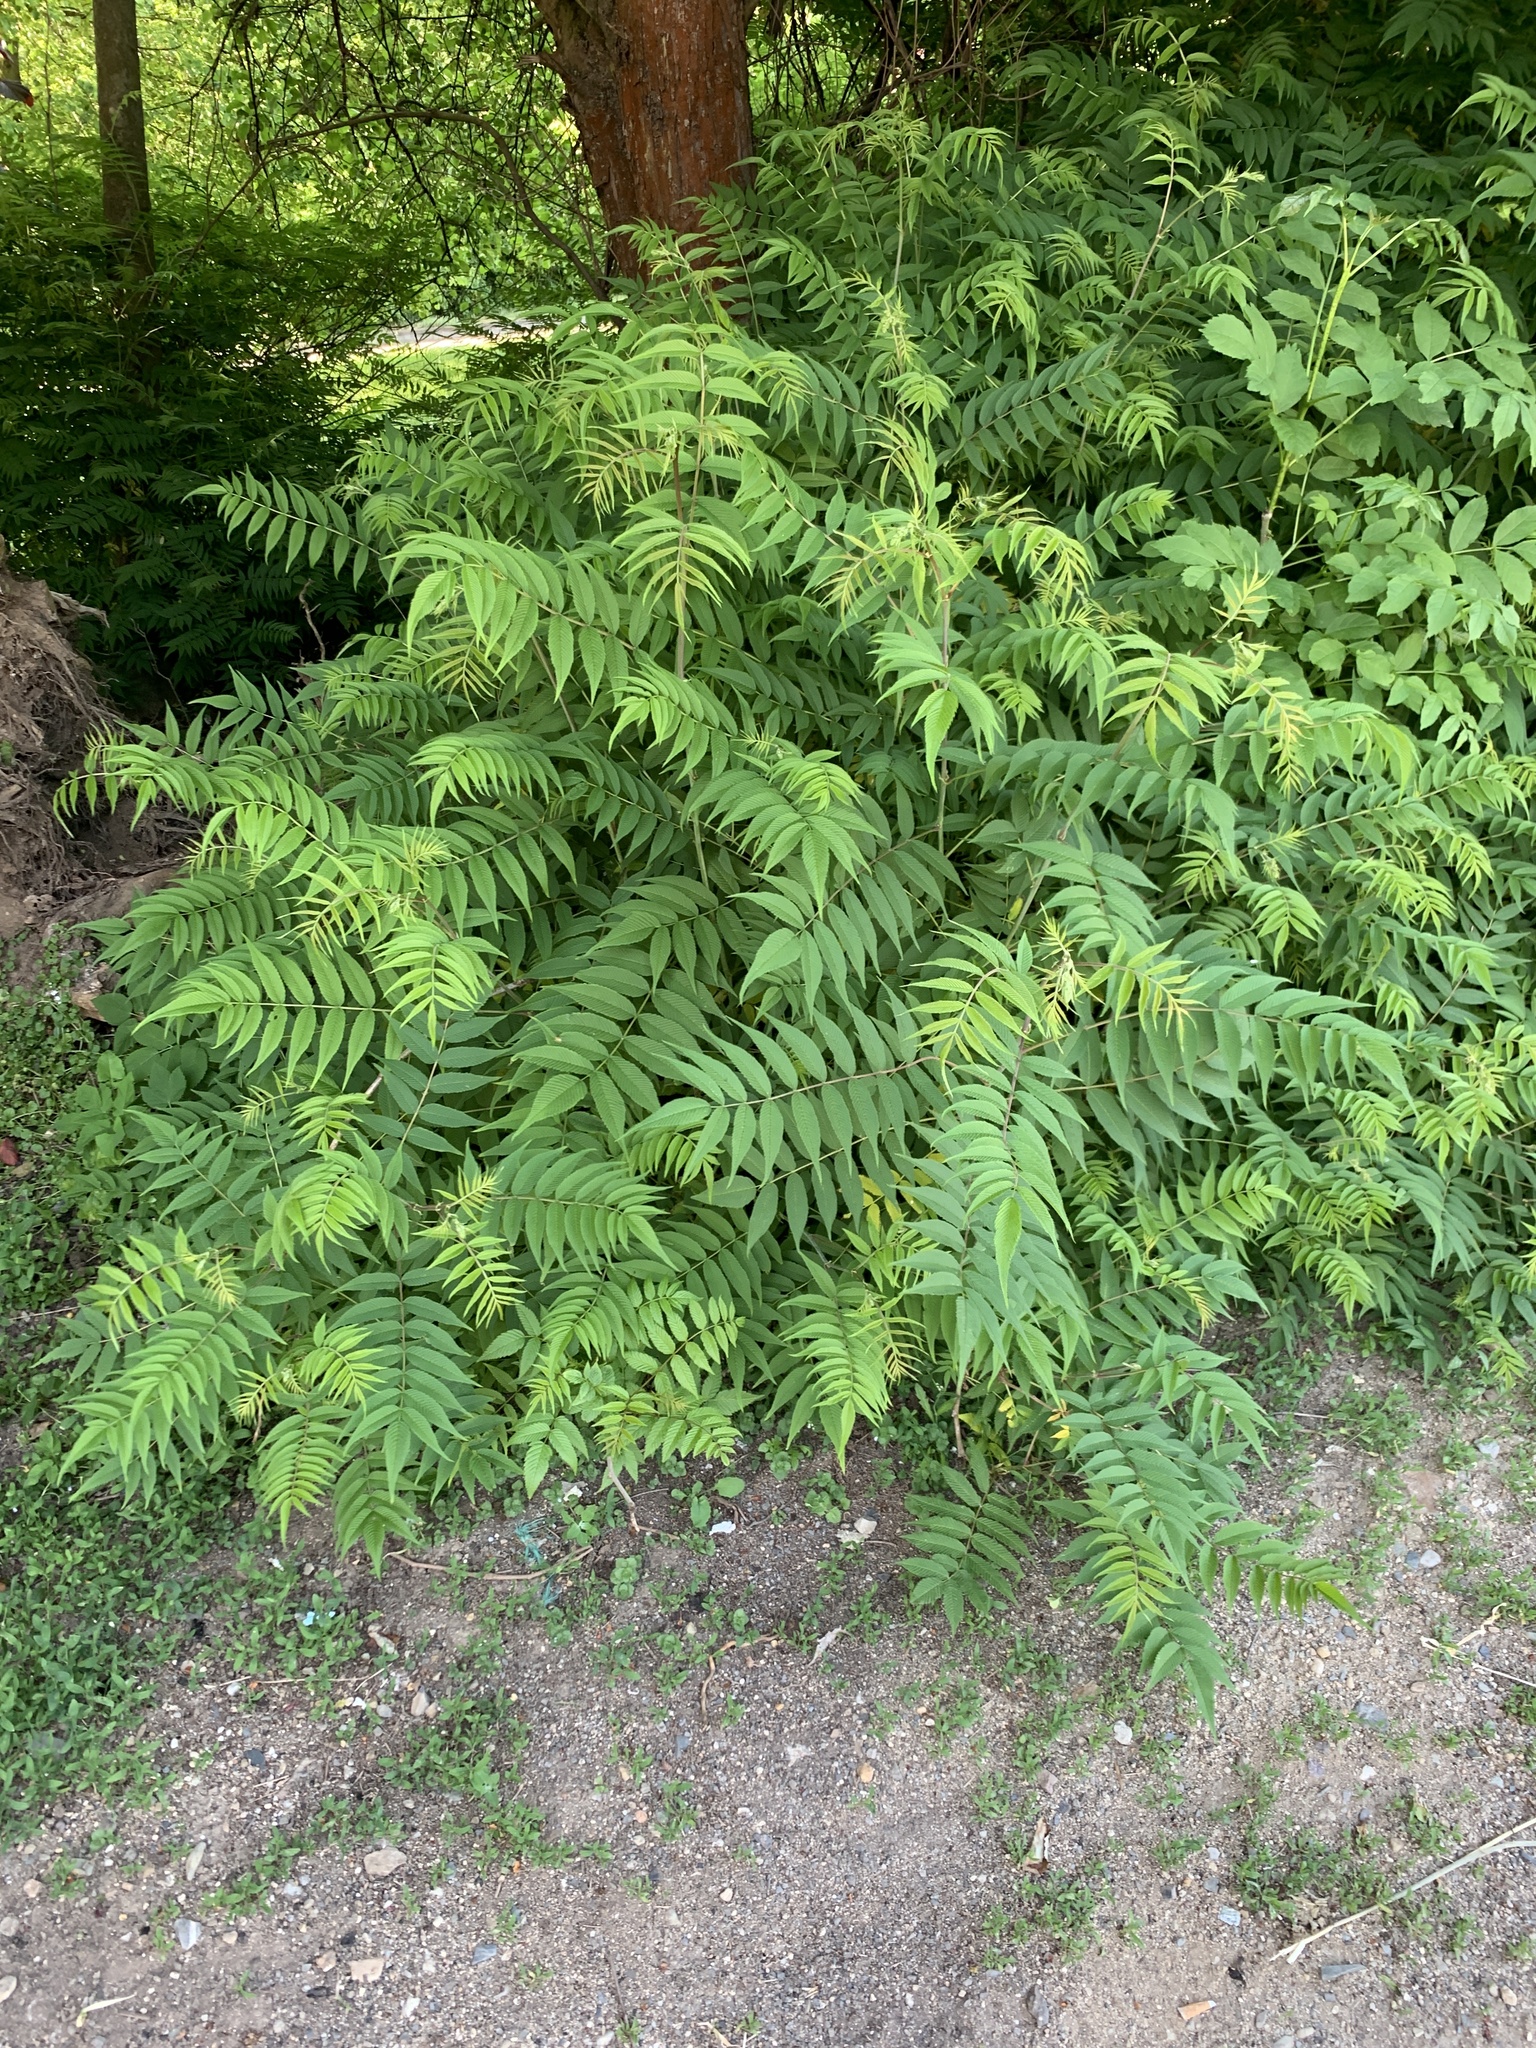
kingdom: Plantae
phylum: Tracheophyta
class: Magnoliopsida
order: Rosales
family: Rosaceae
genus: Sorbaria
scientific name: Sorbaria sorbifolia
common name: False spiraea
